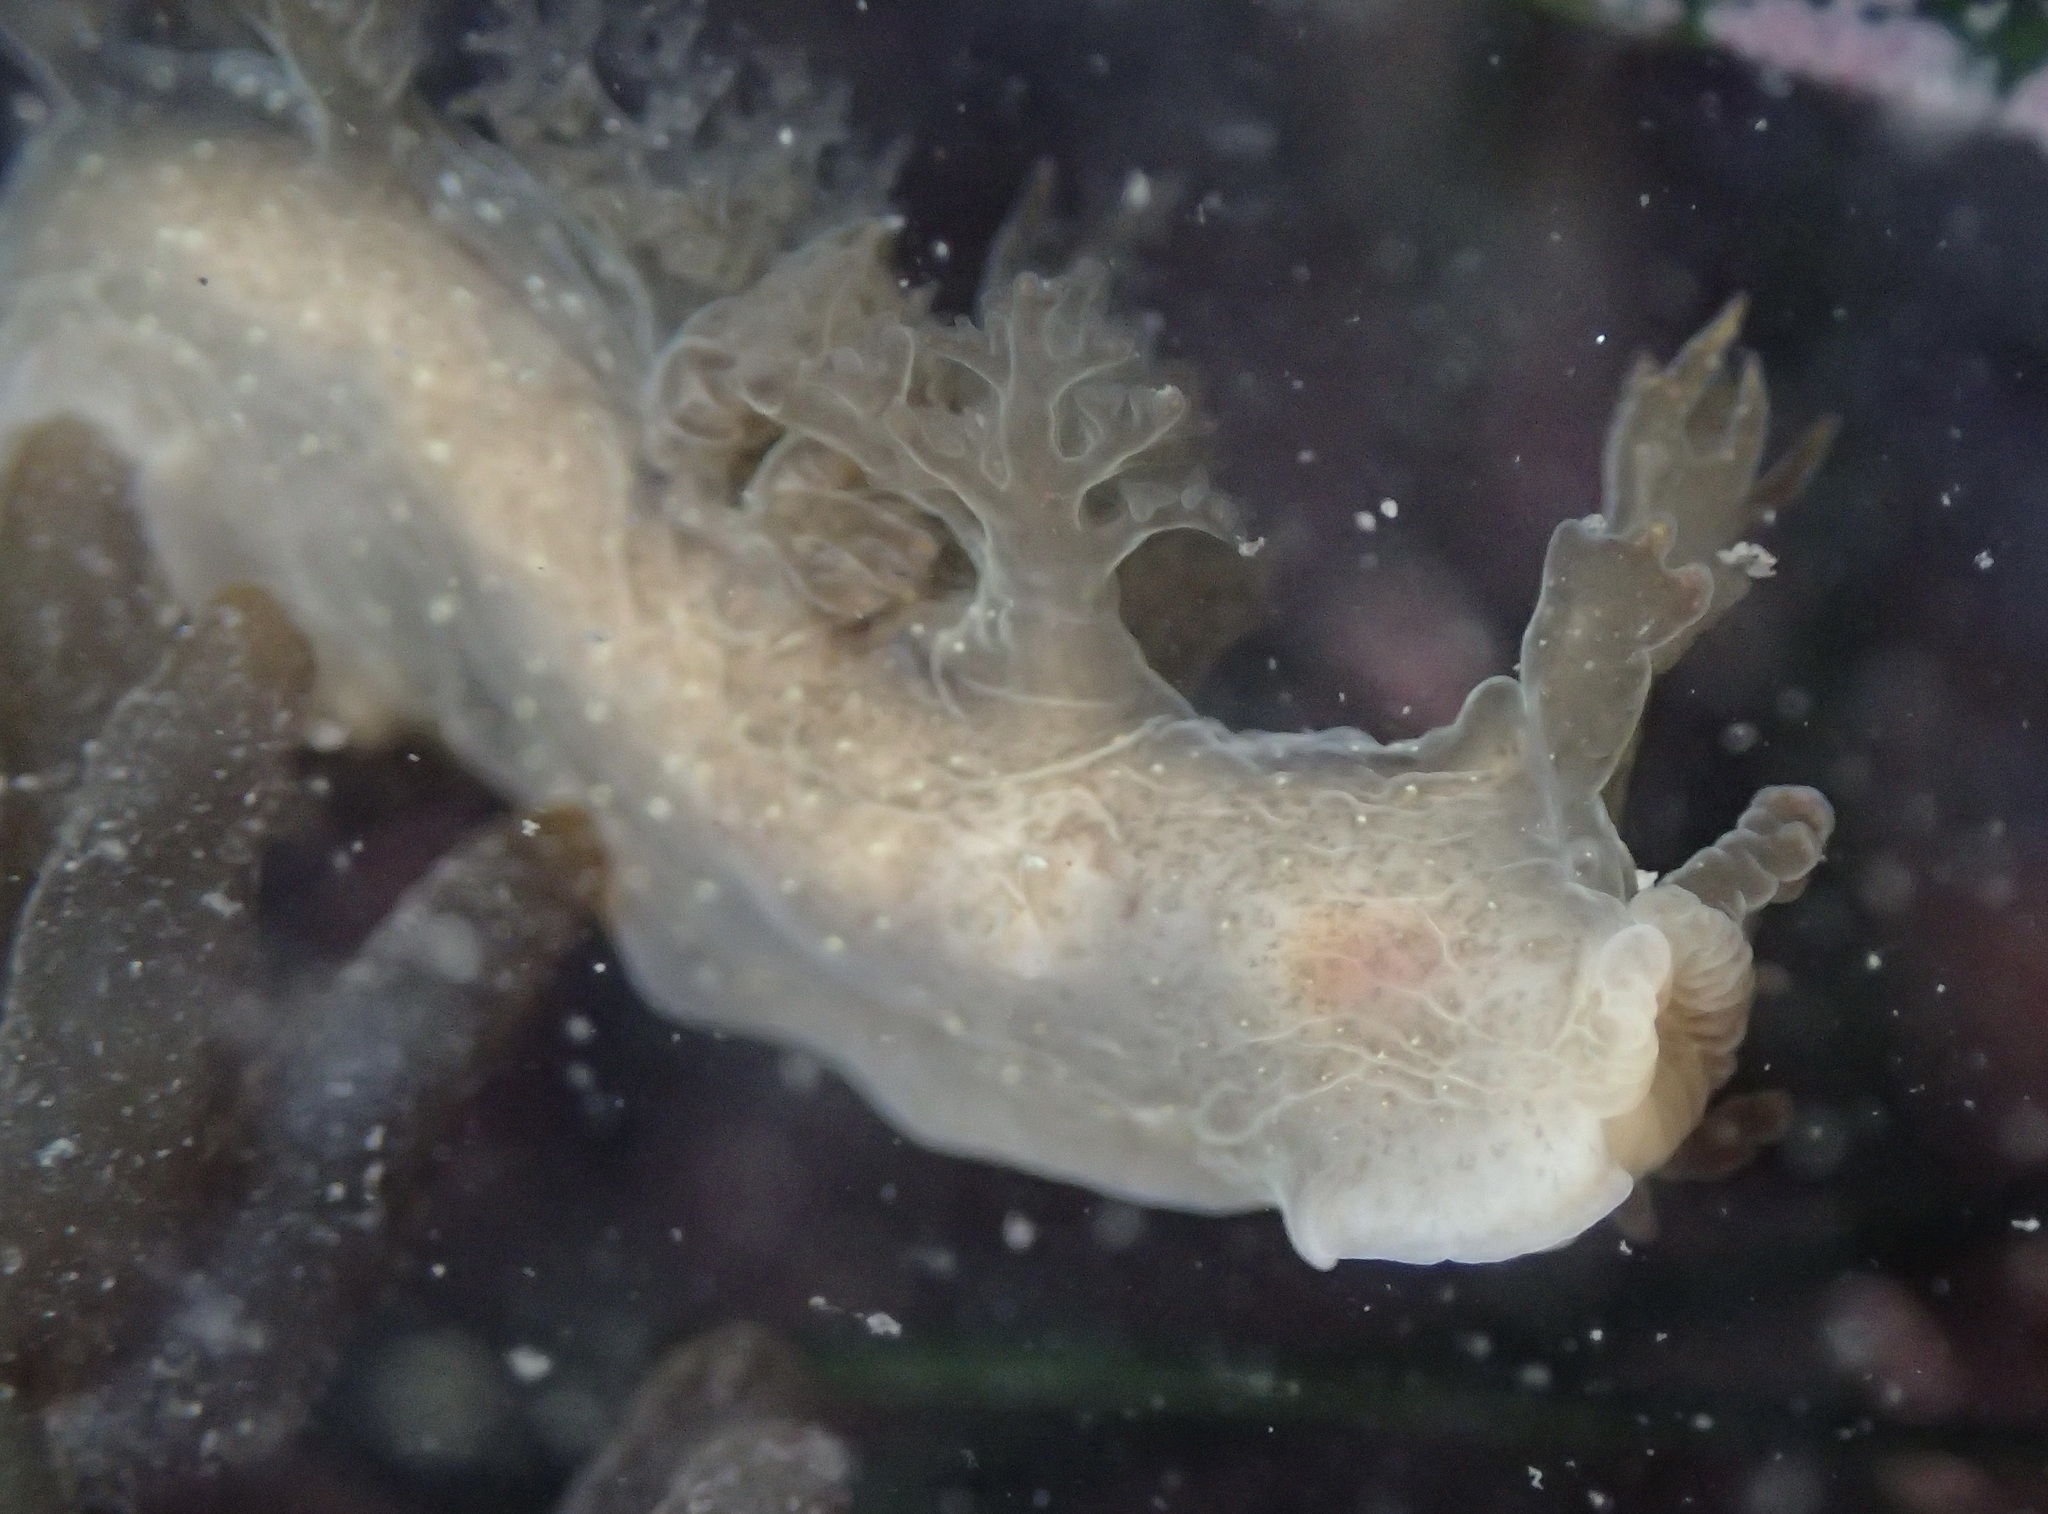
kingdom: Animalia
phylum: Mollusca
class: Gastropoda
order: Nudibranchia
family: Dendronotidae
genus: Dendronotus
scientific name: Dendronotus subramosus
